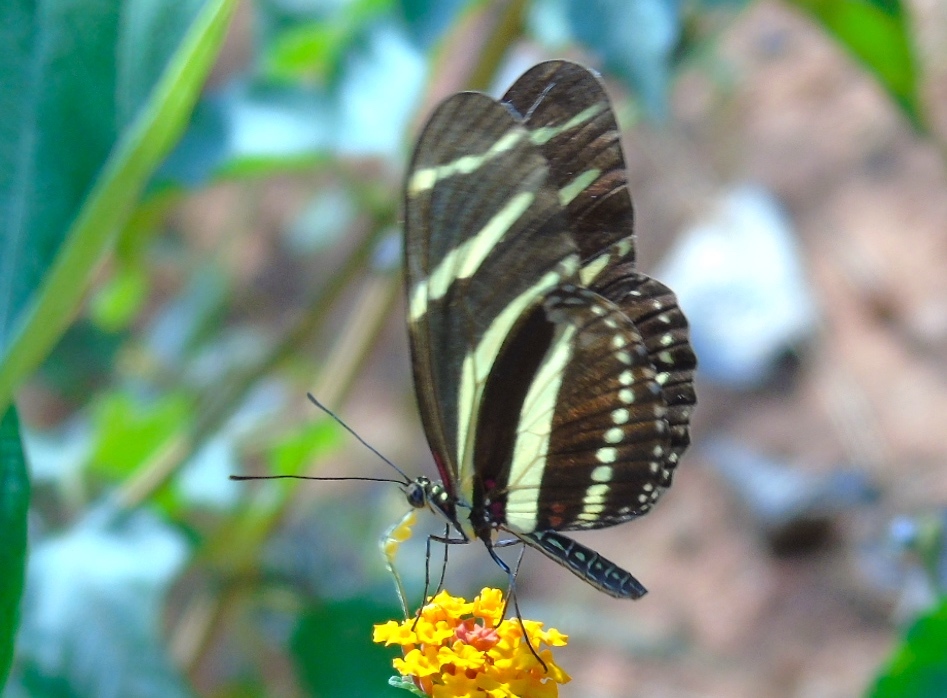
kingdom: Animalia
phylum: Arthropoda
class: Insecta
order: Lepidoptera
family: Nymphalidae
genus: Heliconius
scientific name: Heliconius charithonia
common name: Zebra long wing
